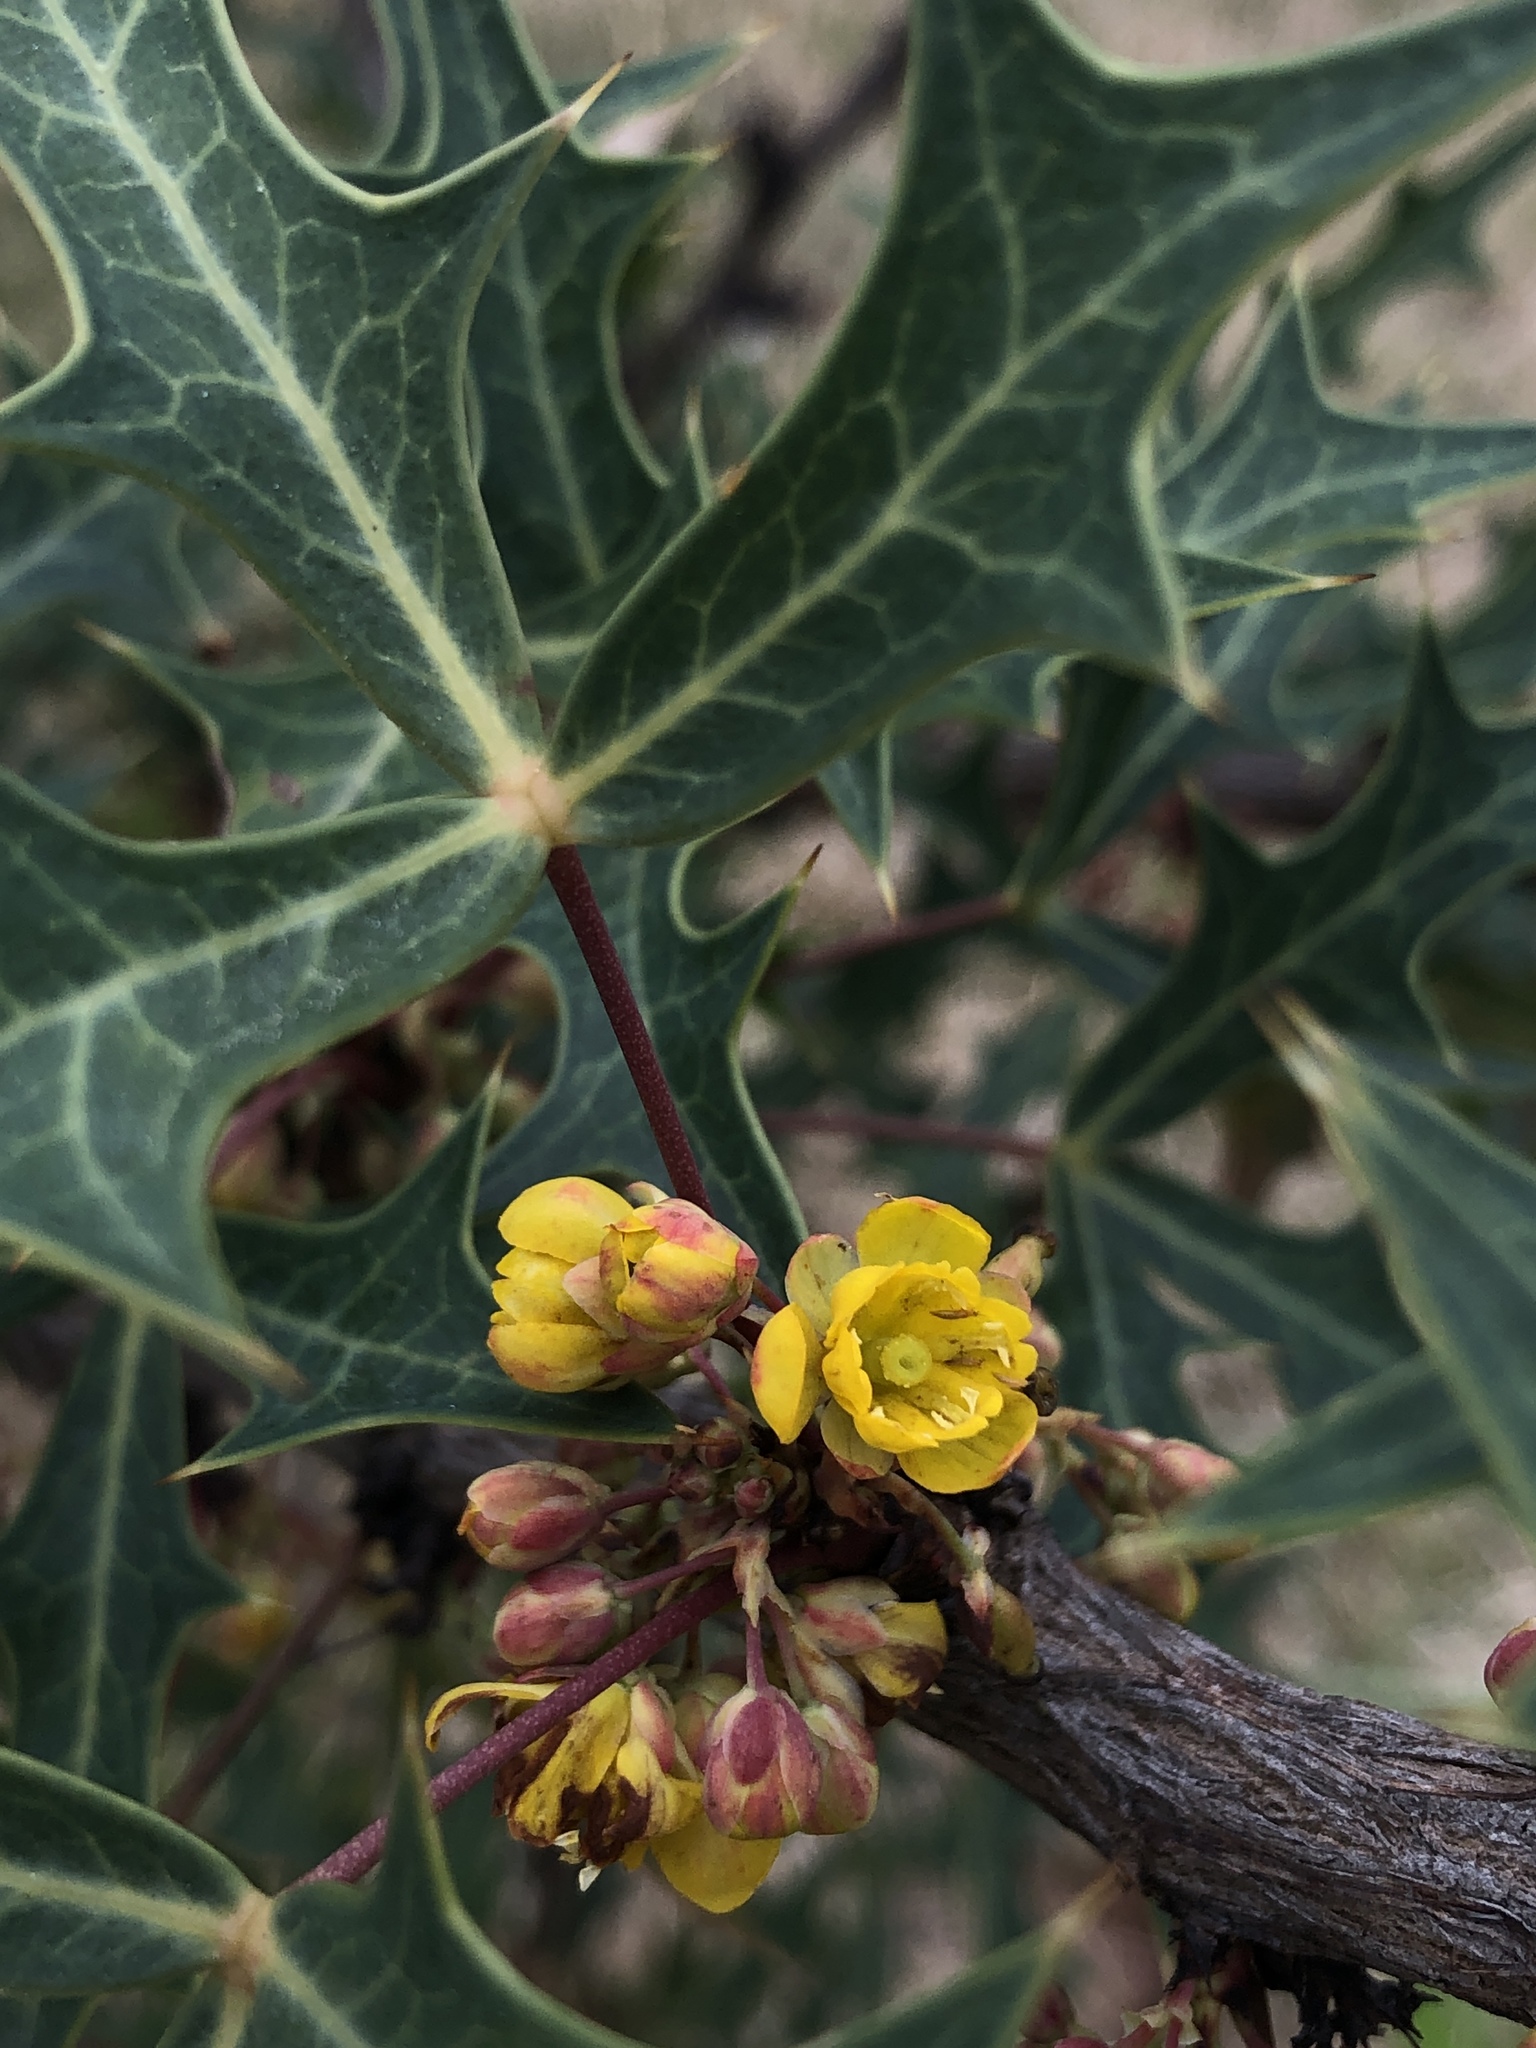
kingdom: Plantae
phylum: Tracheophyta
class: Magnoliopsida
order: Ranunculales
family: Berberidaceae
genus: Alloberberis
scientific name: Alloberberis trifoliolata
